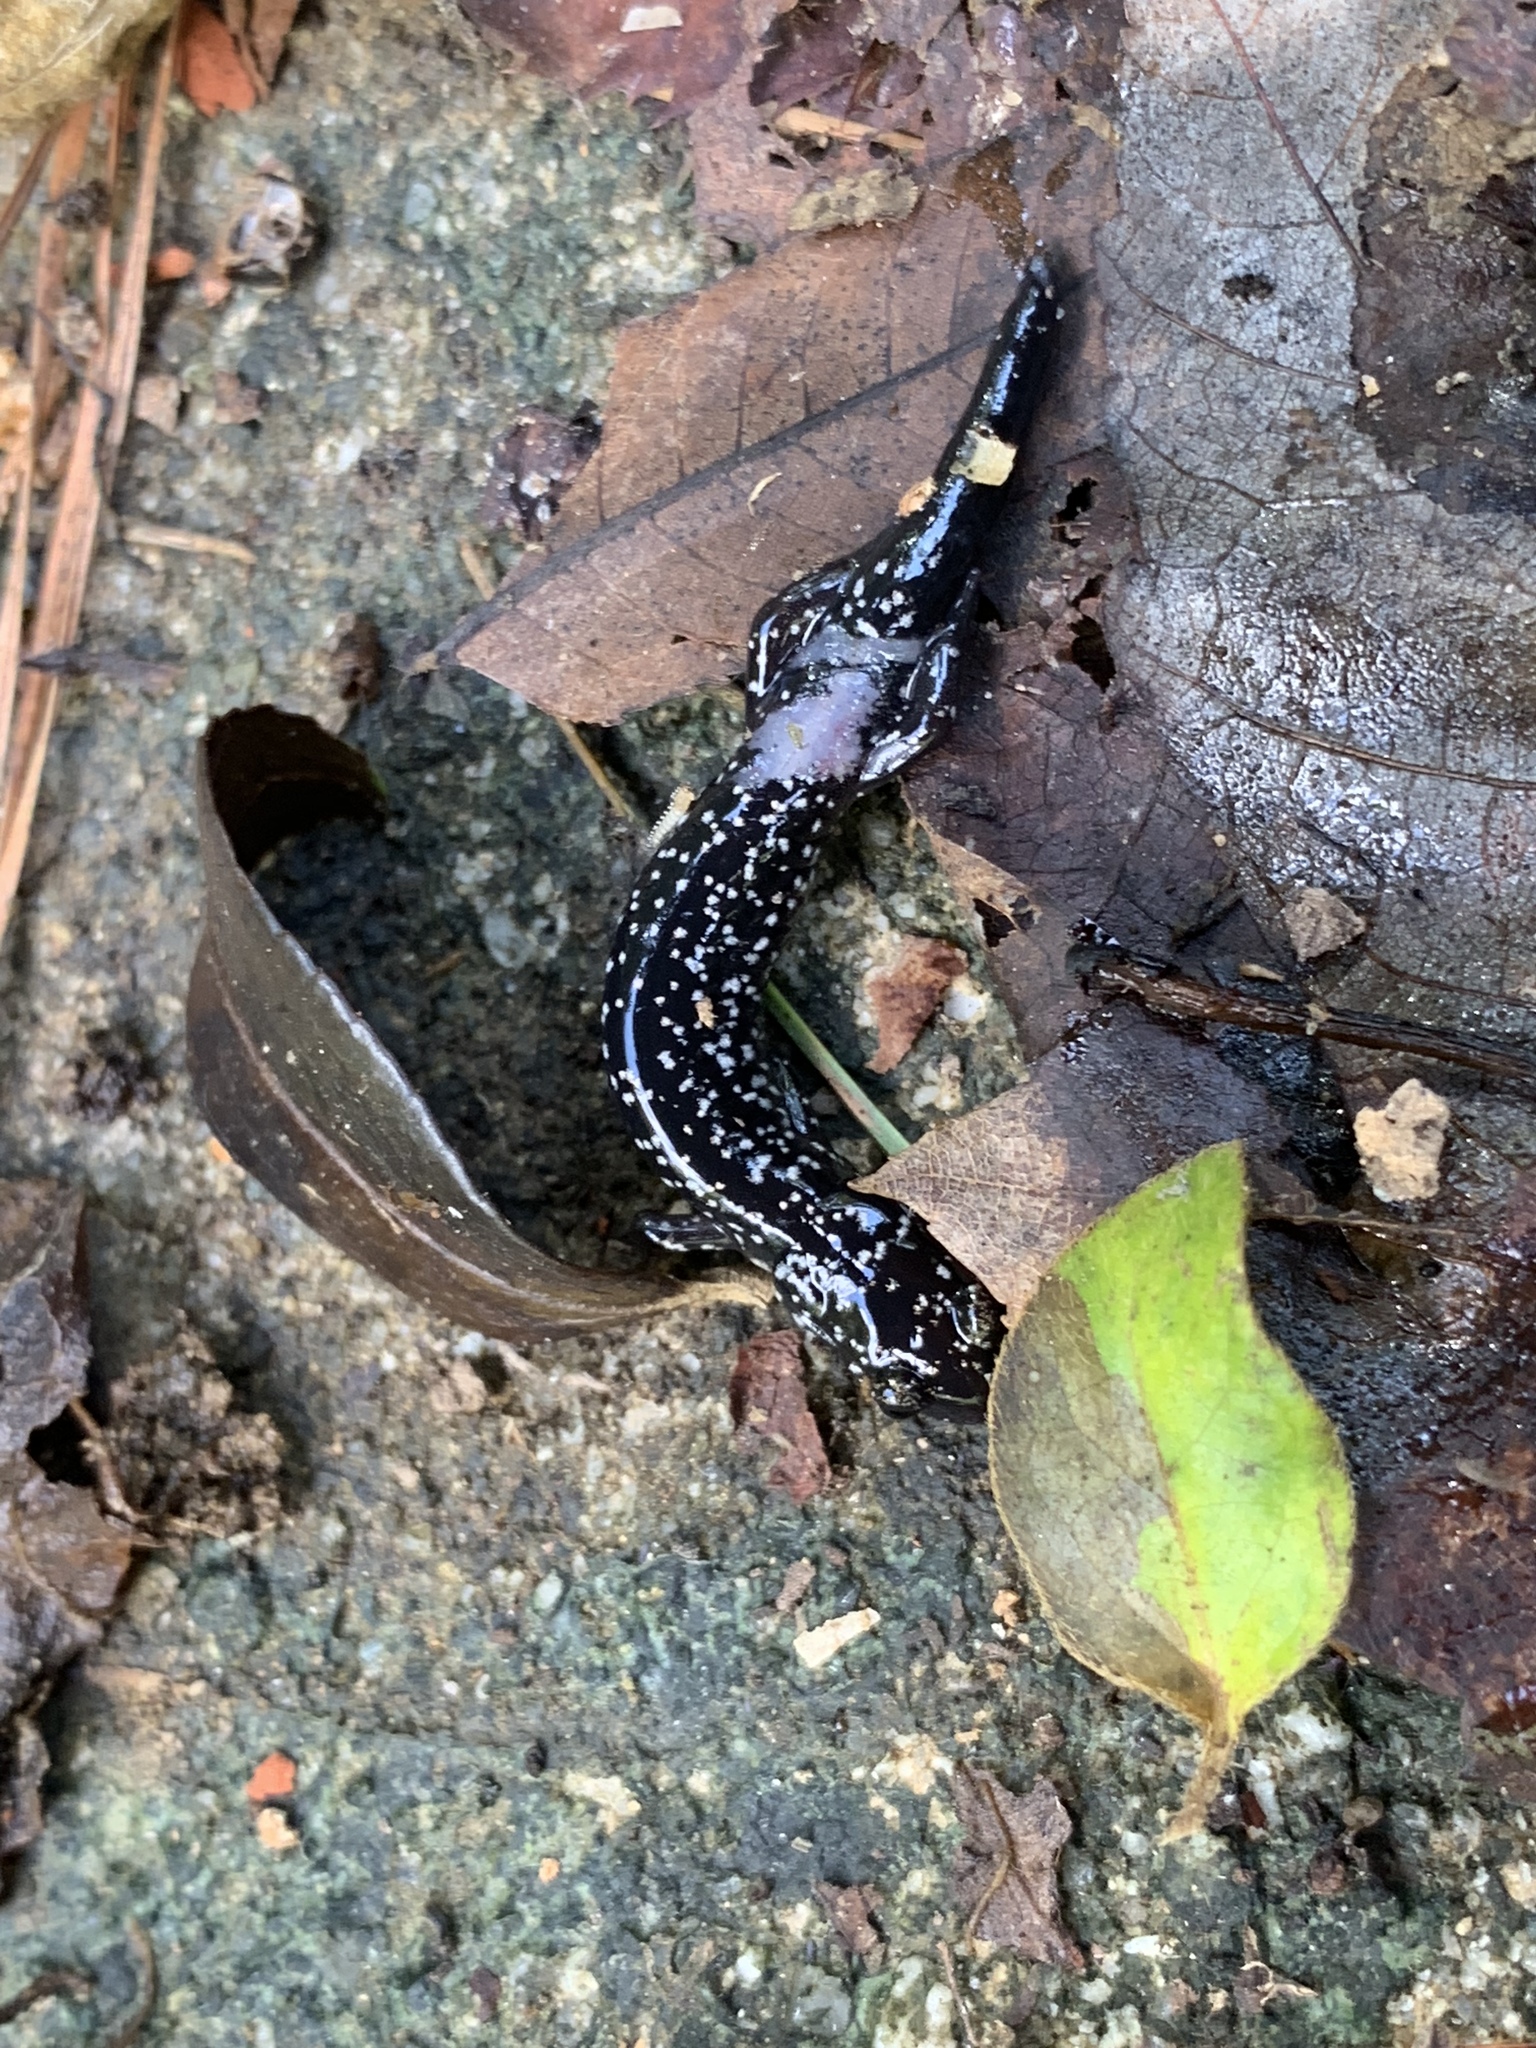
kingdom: Animalia
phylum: Chordata
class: Amphibia
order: Caudata
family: Plethodontidae
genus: Plethodon
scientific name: Plethodon cylindraceus
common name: White-spotted slimy salamander
